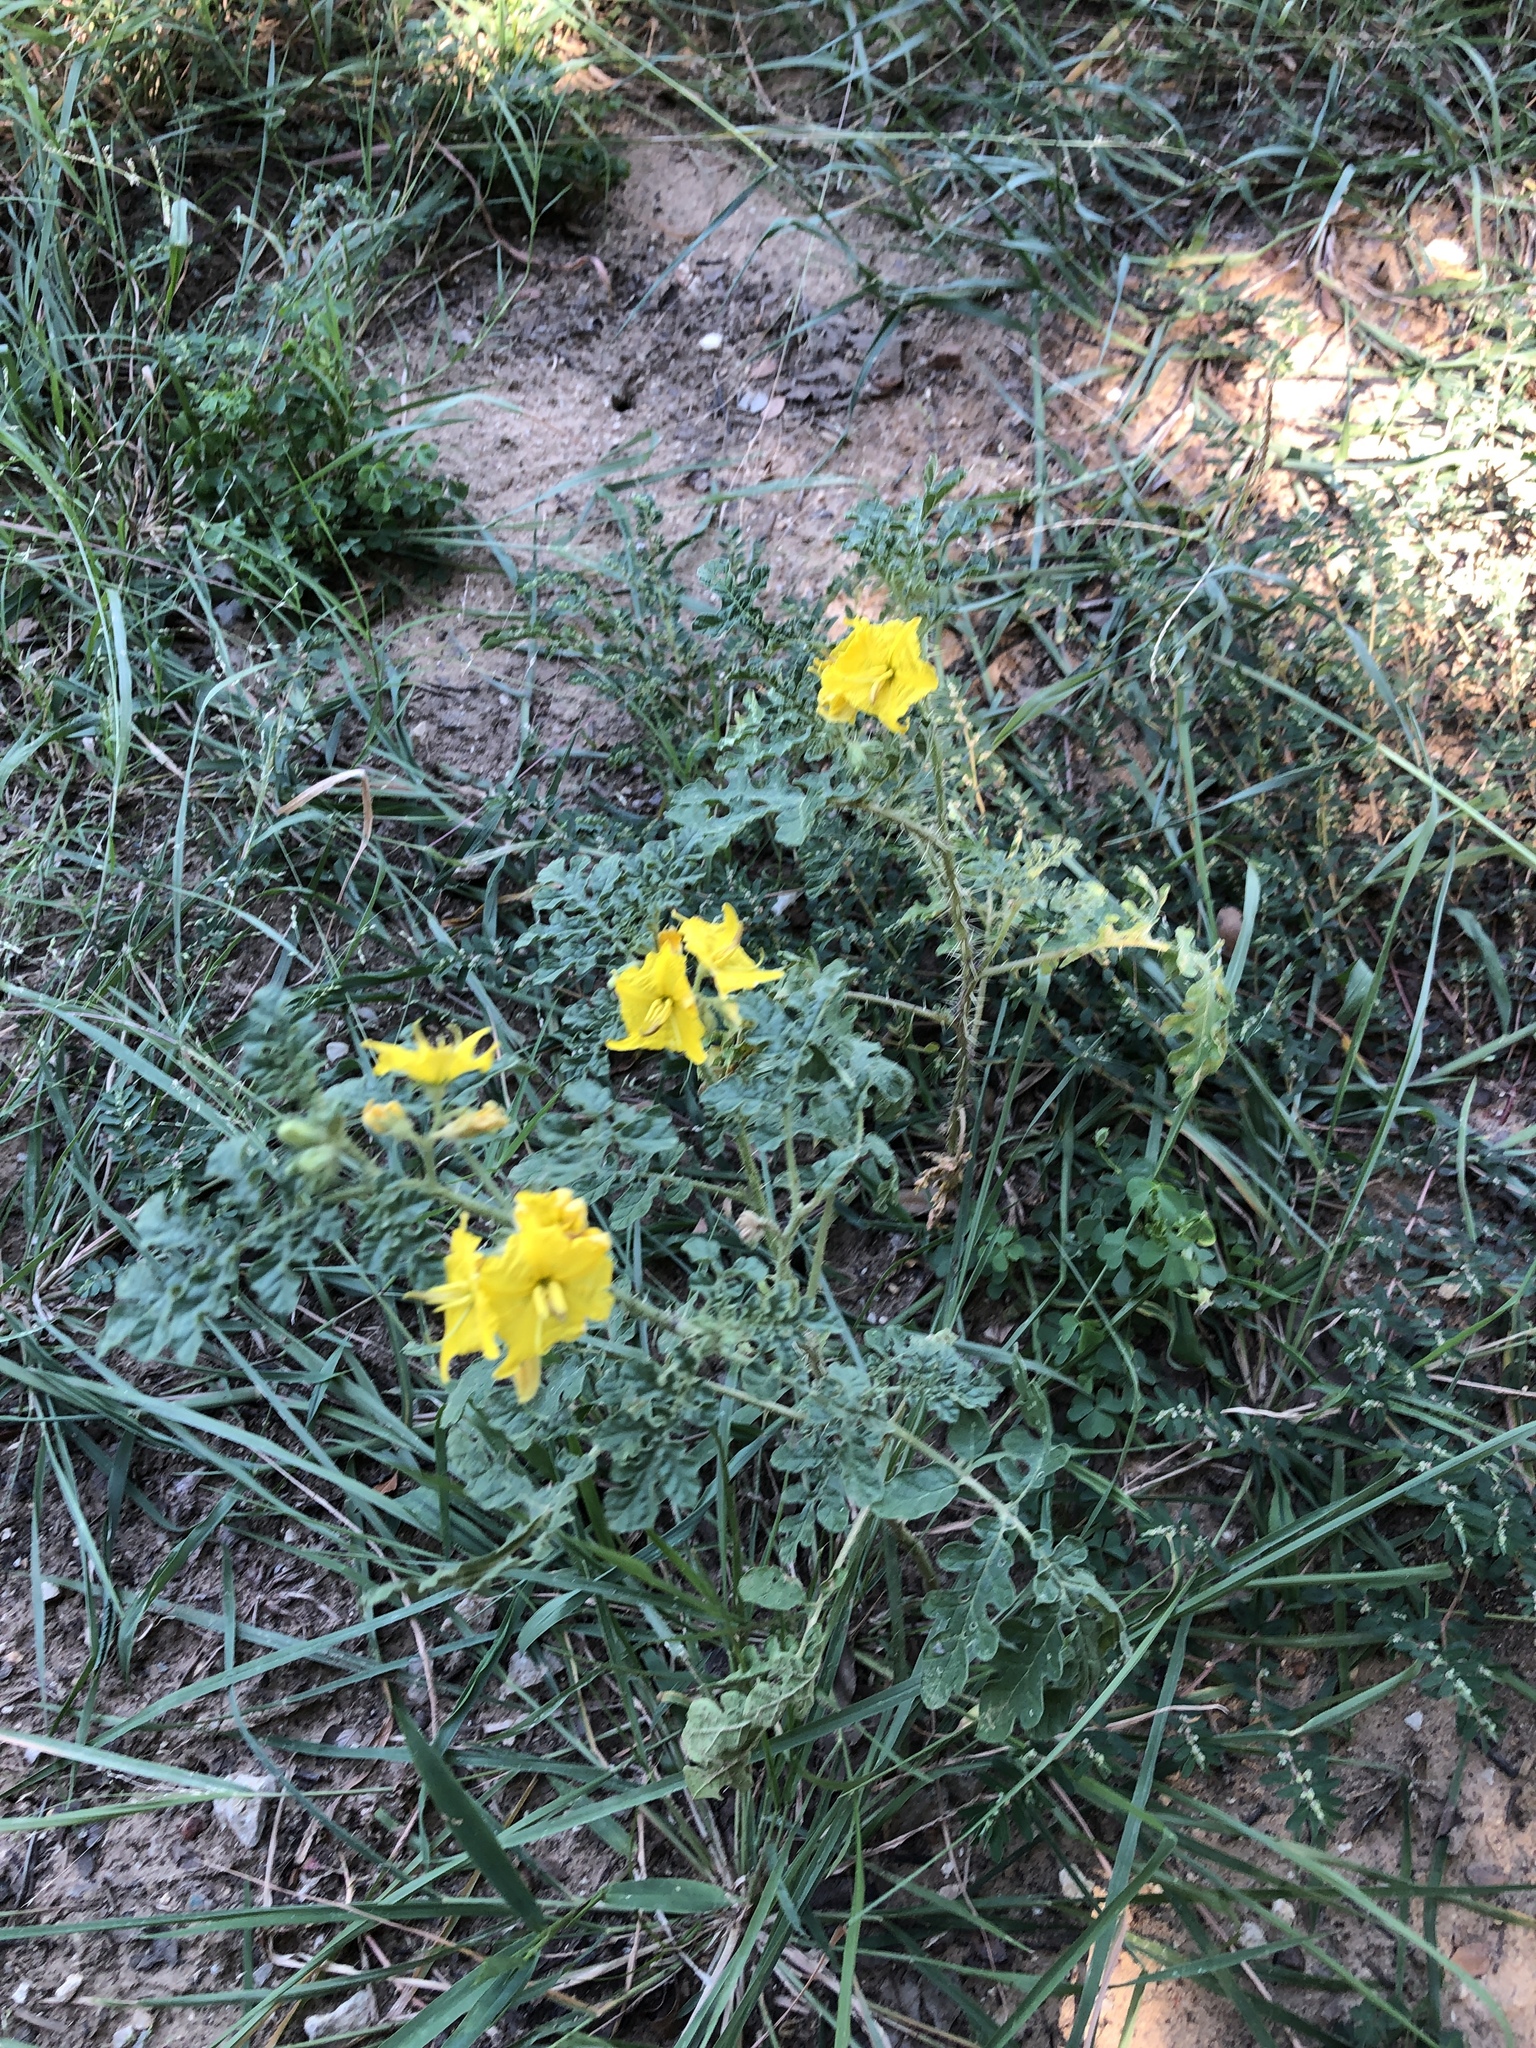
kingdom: Plantae
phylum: Tracheophyta
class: Magnoliopsida
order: Solanales
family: Solanaceae
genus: Solanum
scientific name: Solanum angustifolium
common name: Buffalobur nightshade
